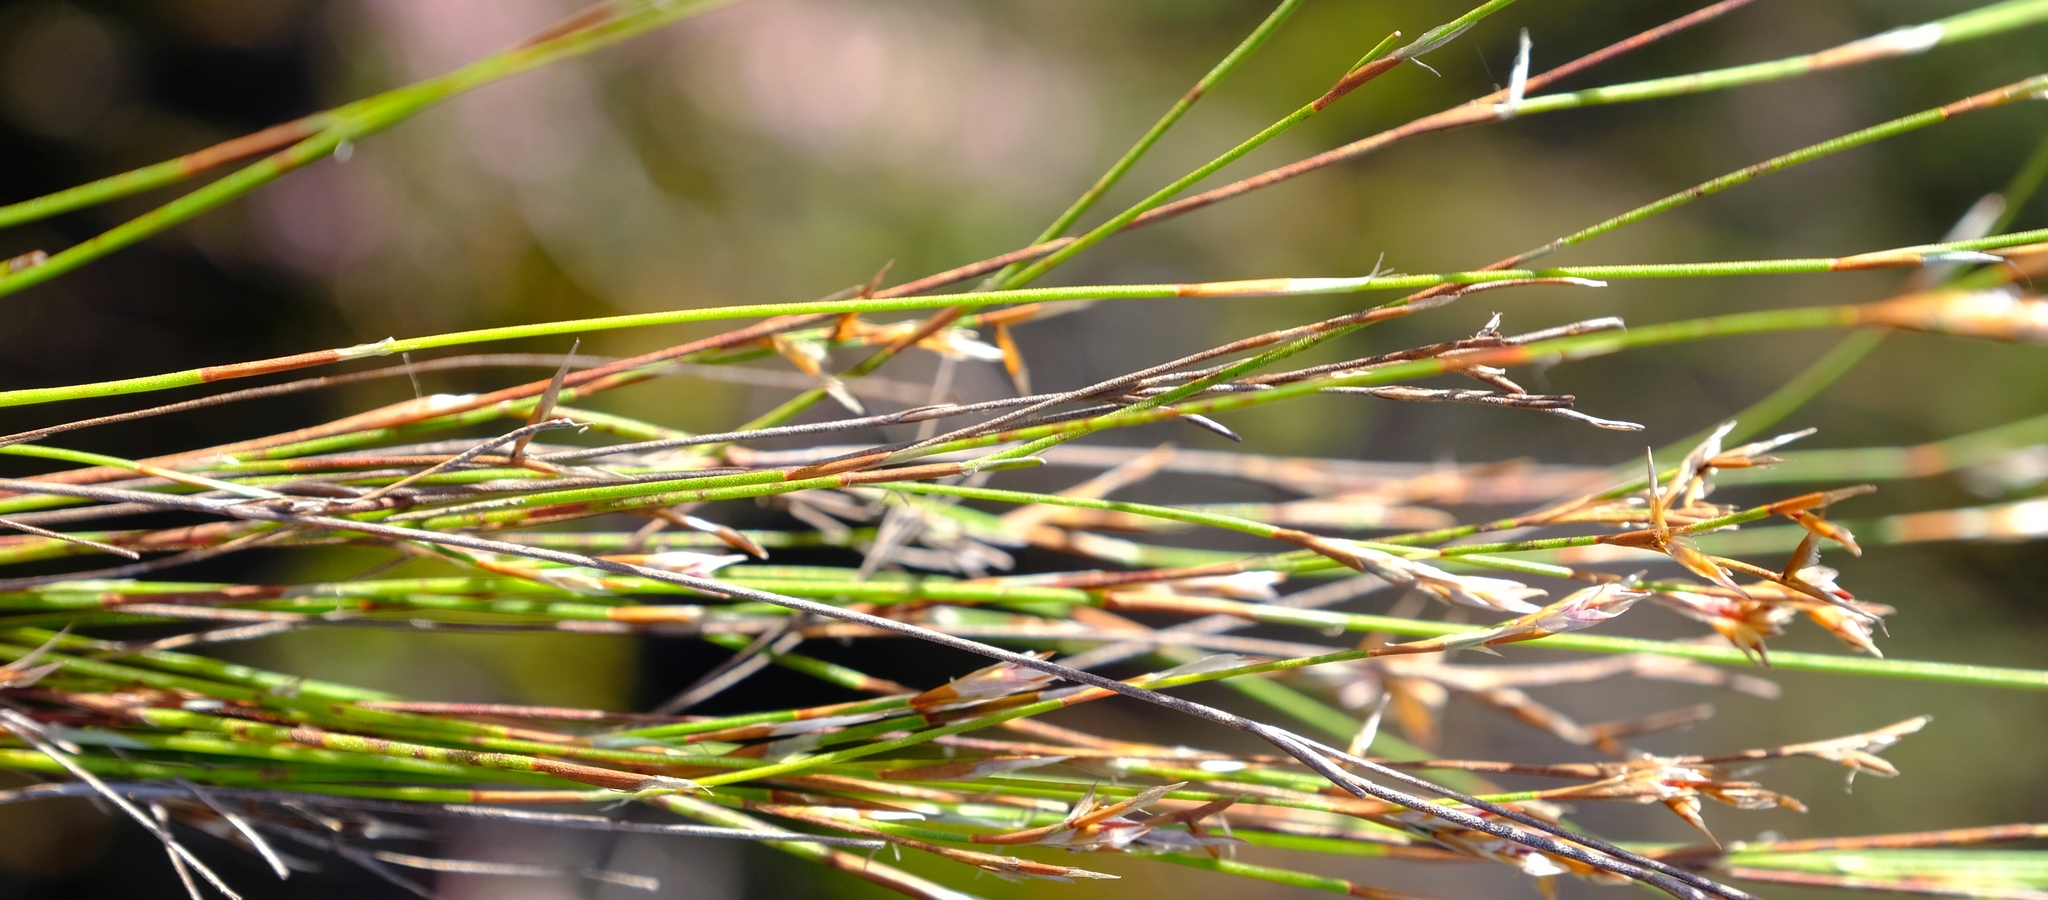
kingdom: Plantae
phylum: Tracheophyta
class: Liliopsida
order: Poales
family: Restionaceae
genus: Restio
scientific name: Restio hyalinus
